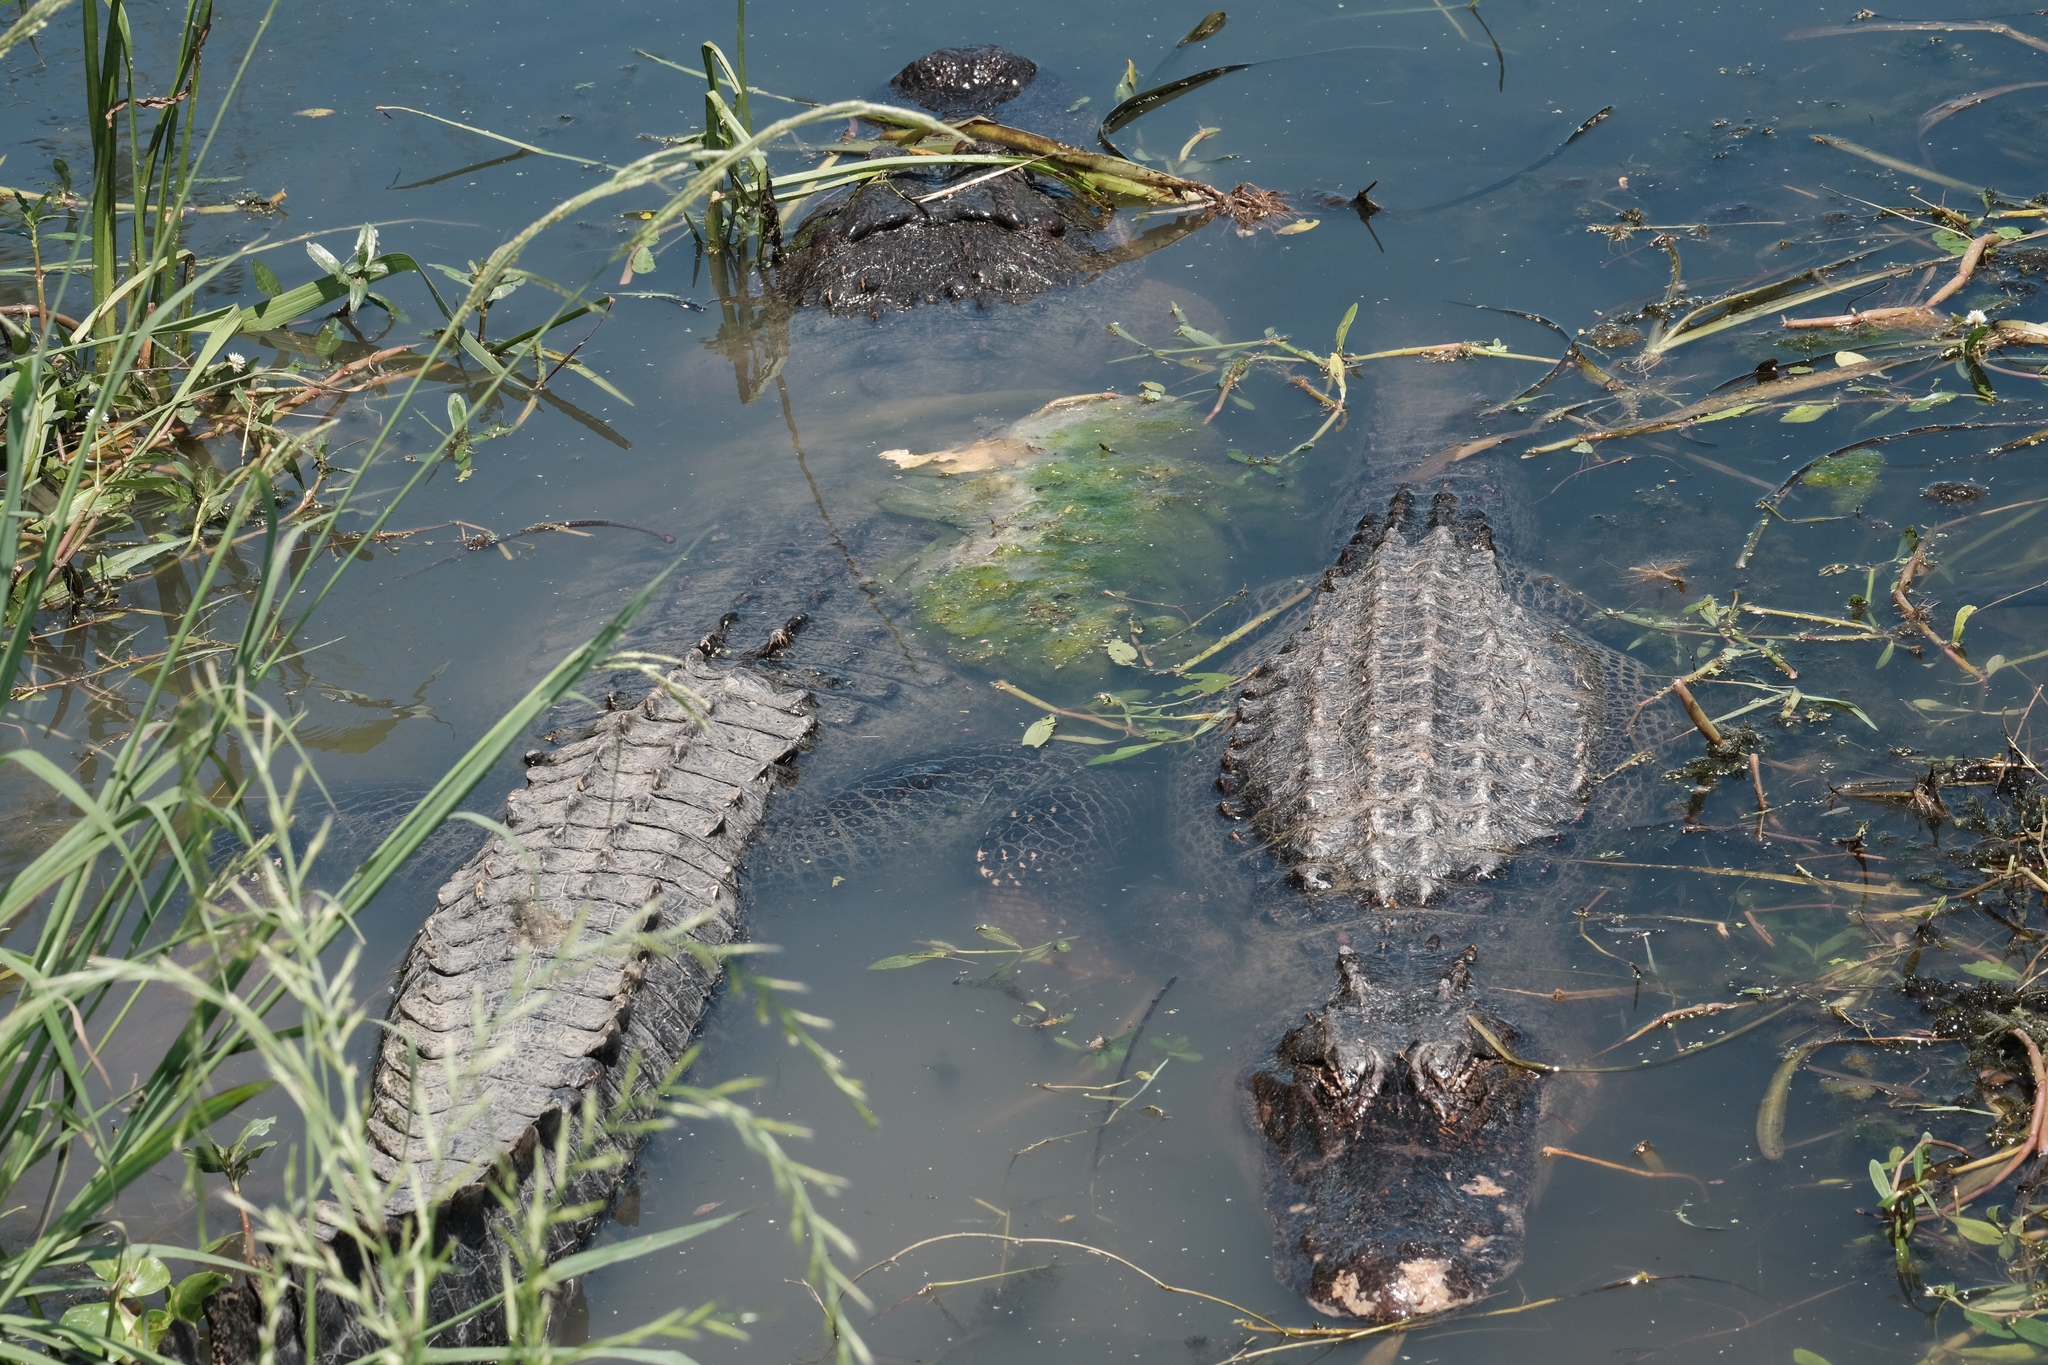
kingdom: Animalia
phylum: Chordata
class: Crocodylia
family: Alligatoridae
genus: Alligator
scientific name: Alligator mississippiensis
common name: American alligator
